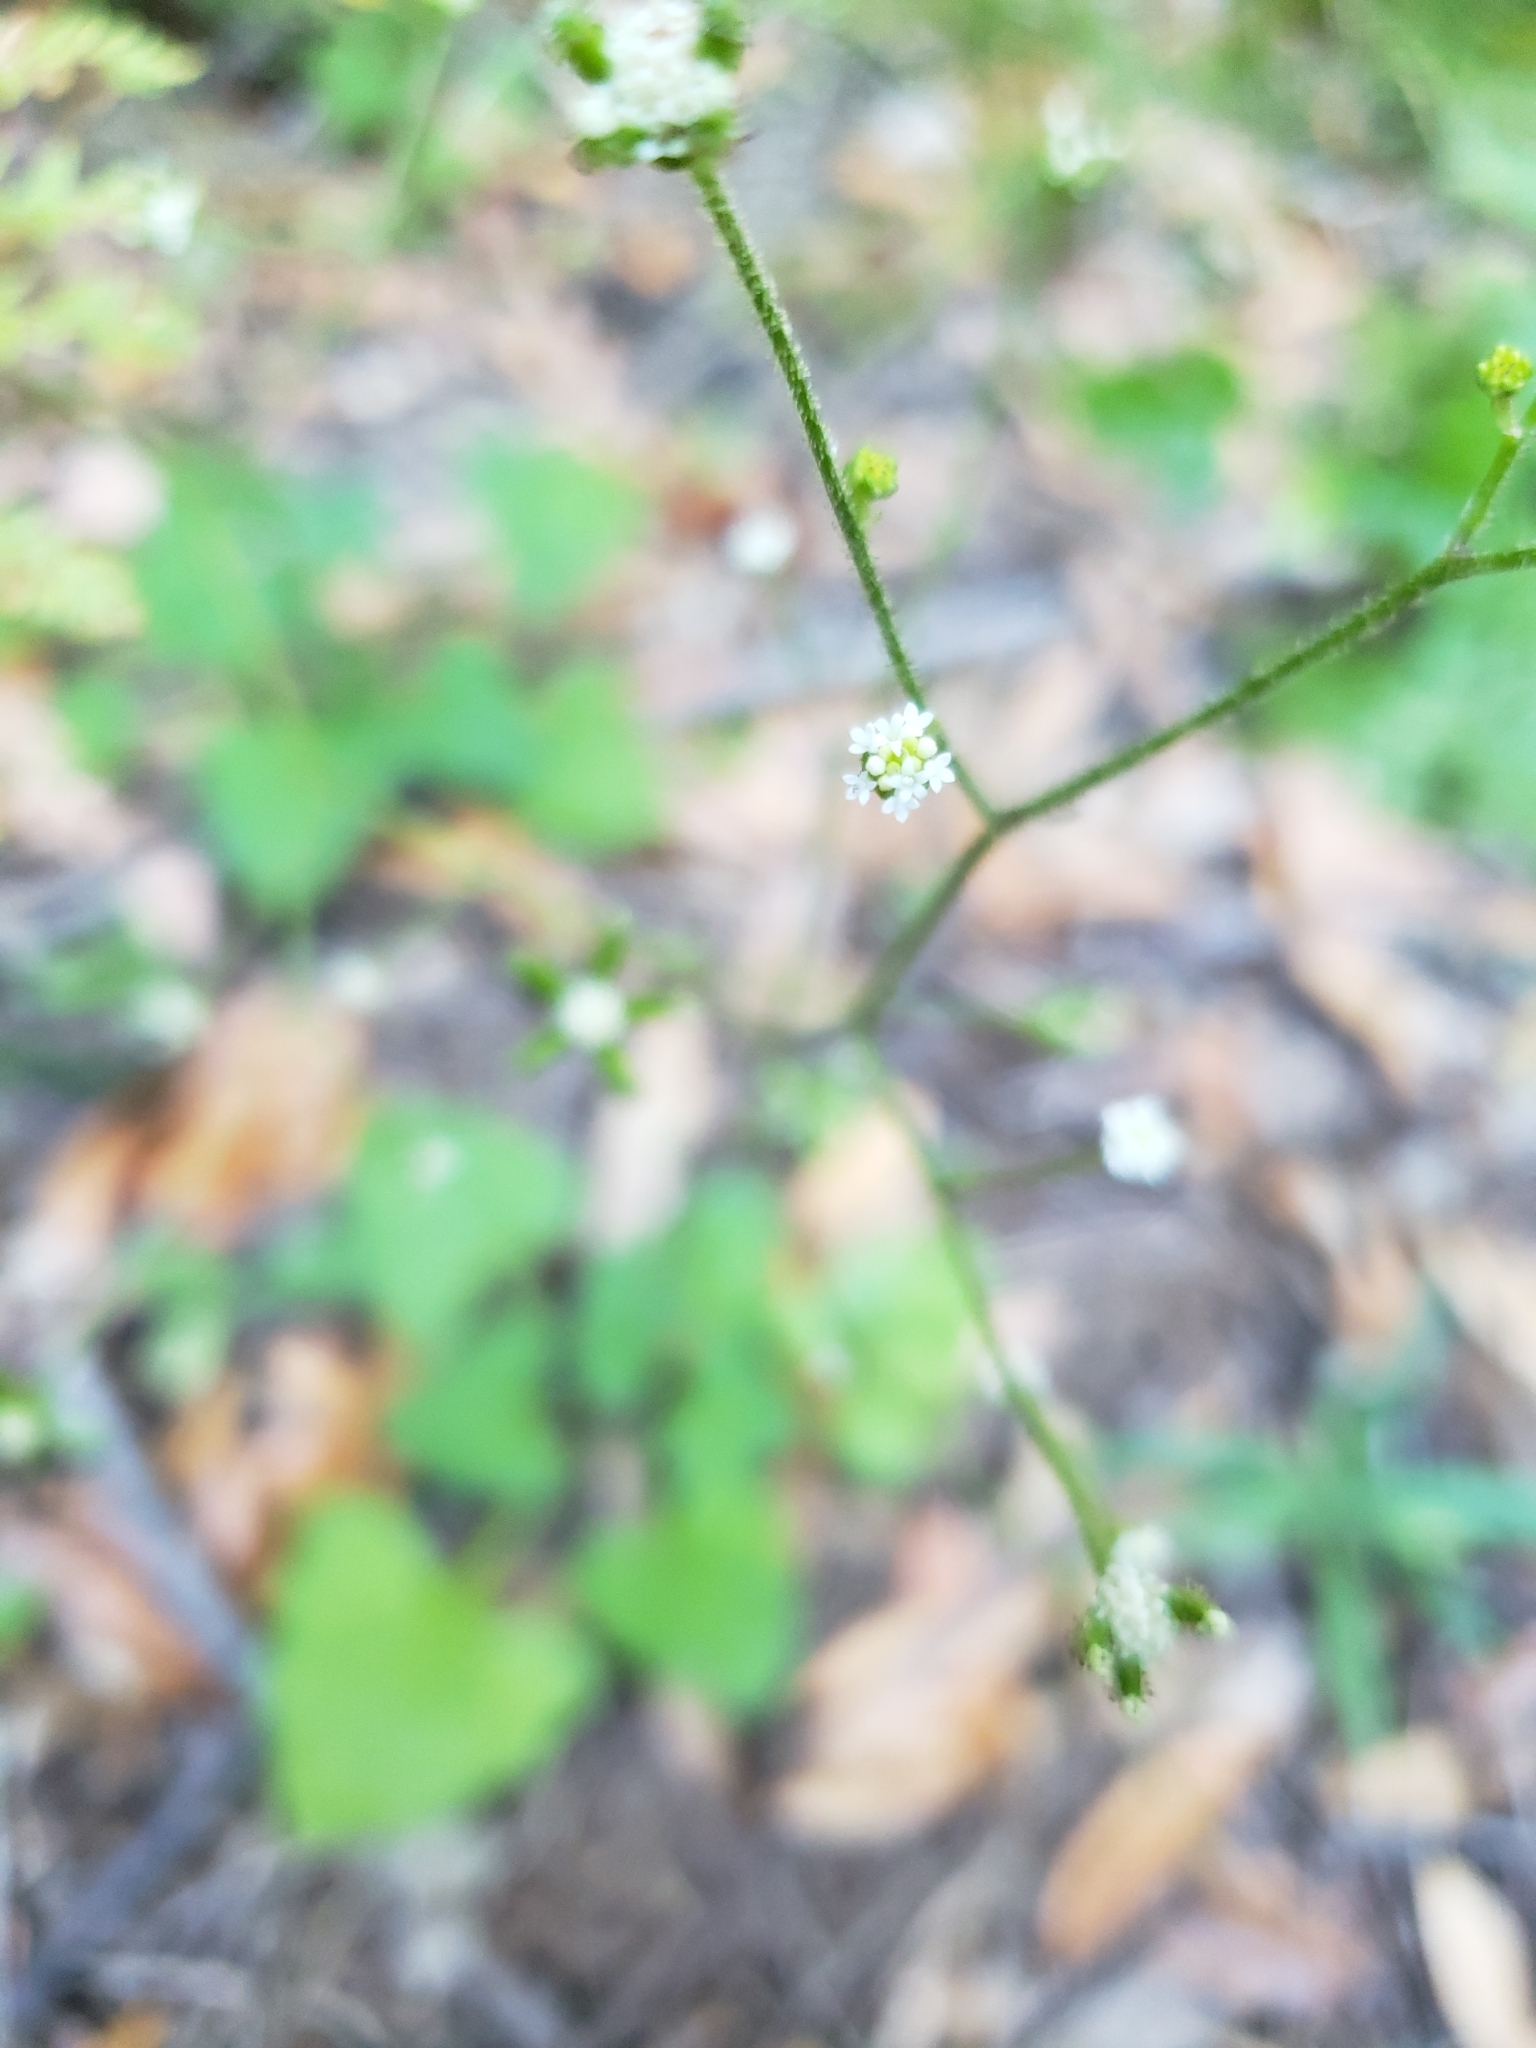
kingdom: Plantae
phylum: Tracheophyta
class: Magnoliopsida
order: Asterales
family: Asteraceae
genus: Adenocaulon
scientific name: Adenocaulon bicolor
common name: Trailplant
